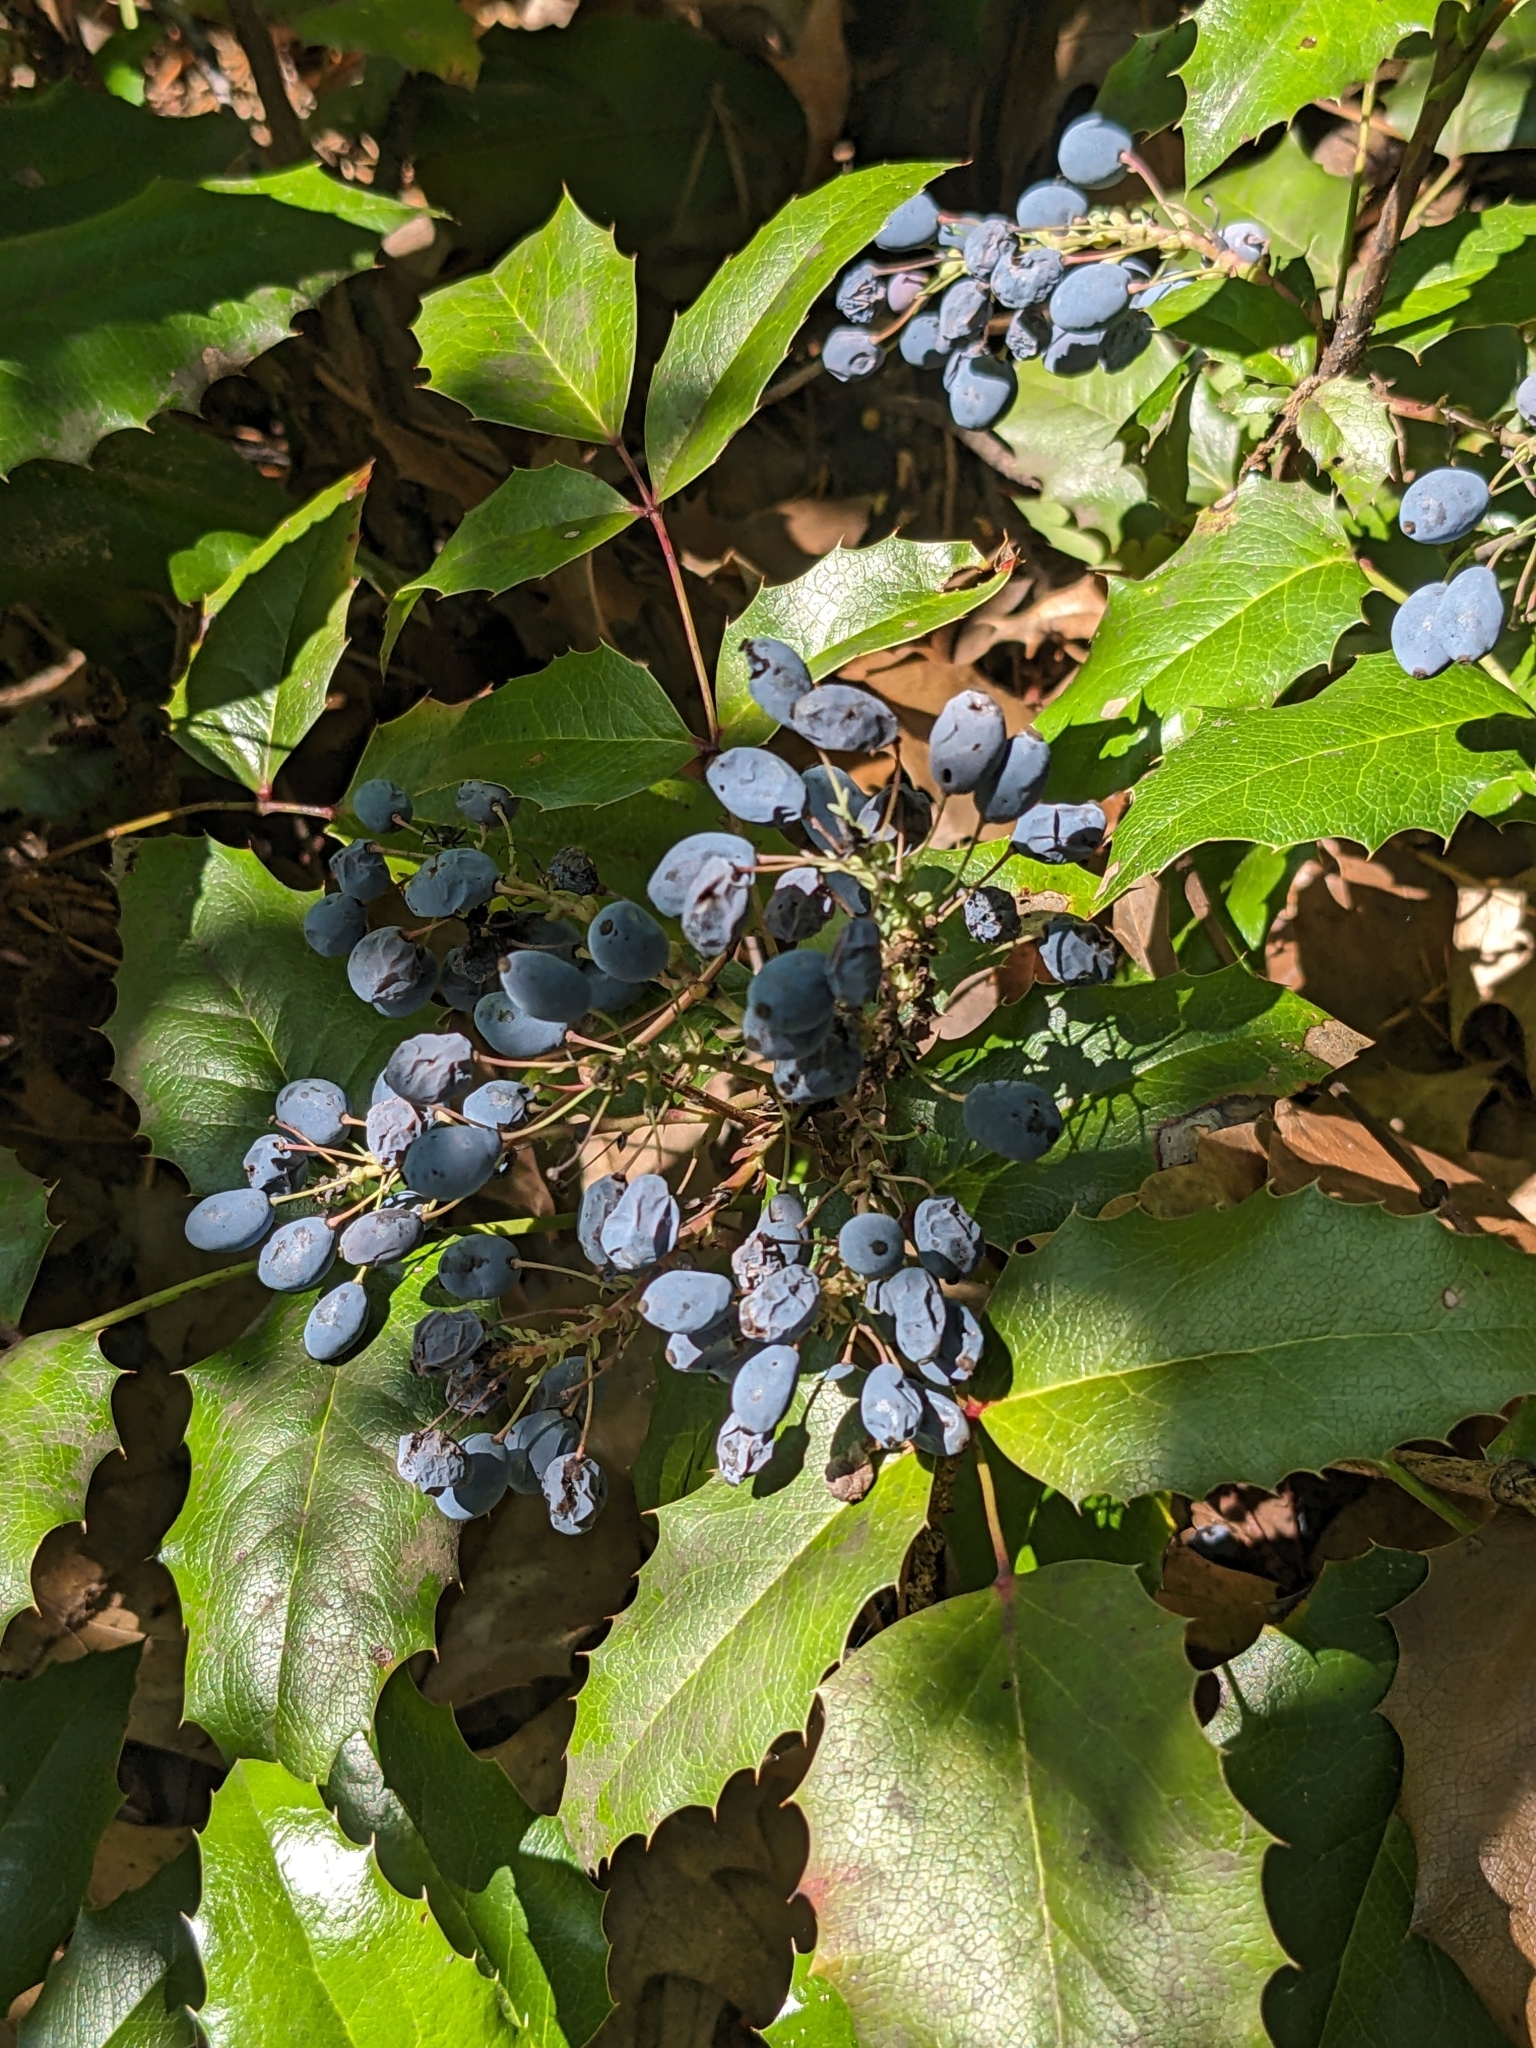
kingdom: Plantae
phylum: Tracheophyta
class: Magnoliopsida
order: Ranunculales
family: Berberidaceae
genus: Mahonia
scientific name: Mahonia aquifolium
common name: Oregon-grape
